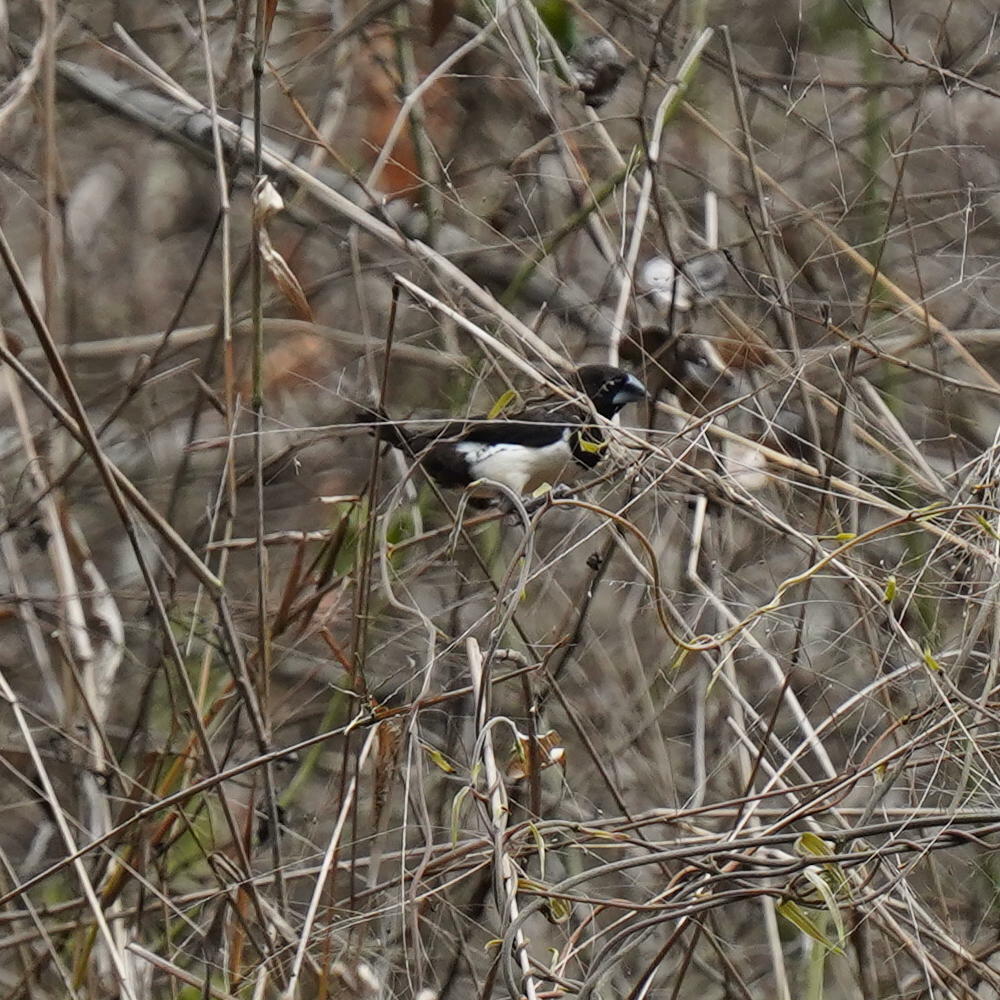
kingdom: Animalia
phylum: Chordata
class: Aves
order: Passeriformes
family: Estrildidae
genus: Lonchura
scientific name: Lonchura striata
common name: White-rumped munia
